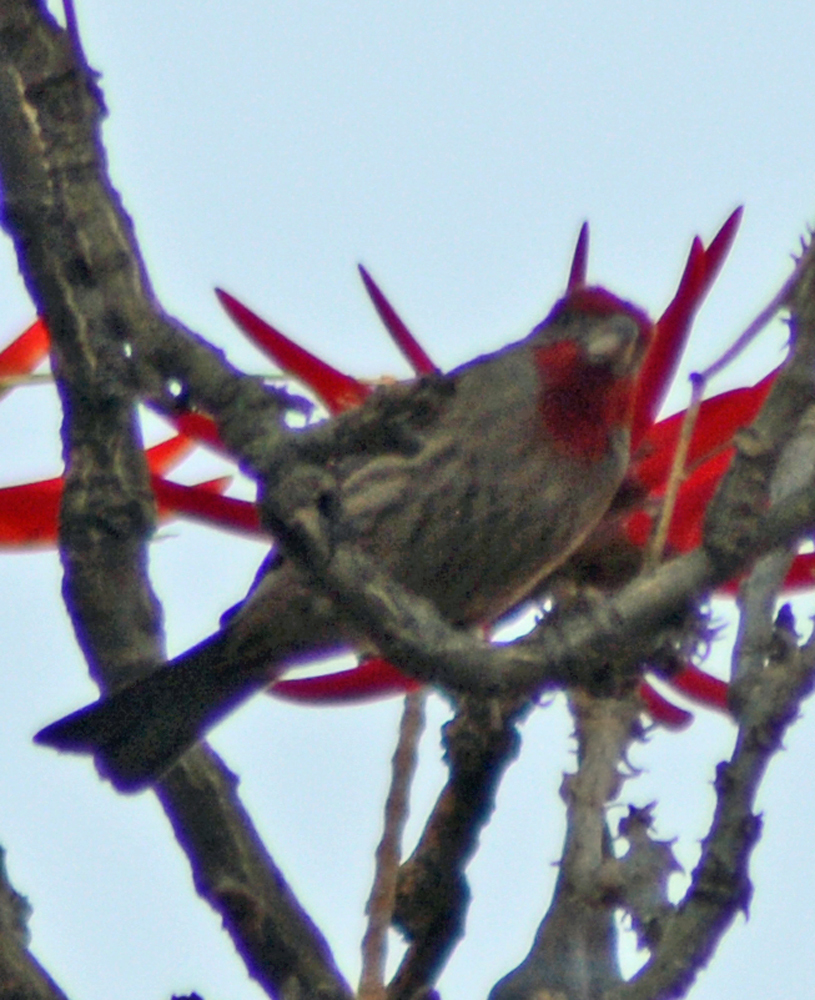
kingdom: Animalia
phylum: Chordata
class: Aves
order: Passeriformes
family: Fringillidae
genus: Haemorhous
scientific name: Haemorhous mexicanus
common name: House finch
